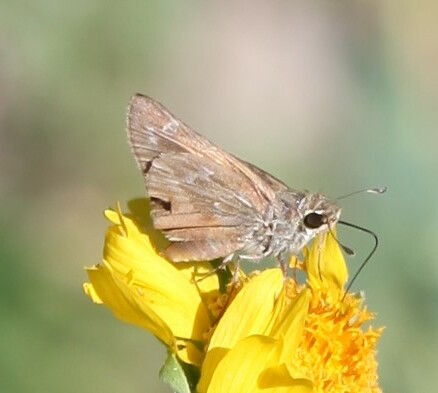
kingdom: Animalia
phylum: Arthropoda
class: Insecta
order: Lepidoptera
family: Hesperiidae
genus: Atalopedes
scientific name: Atalopedes
